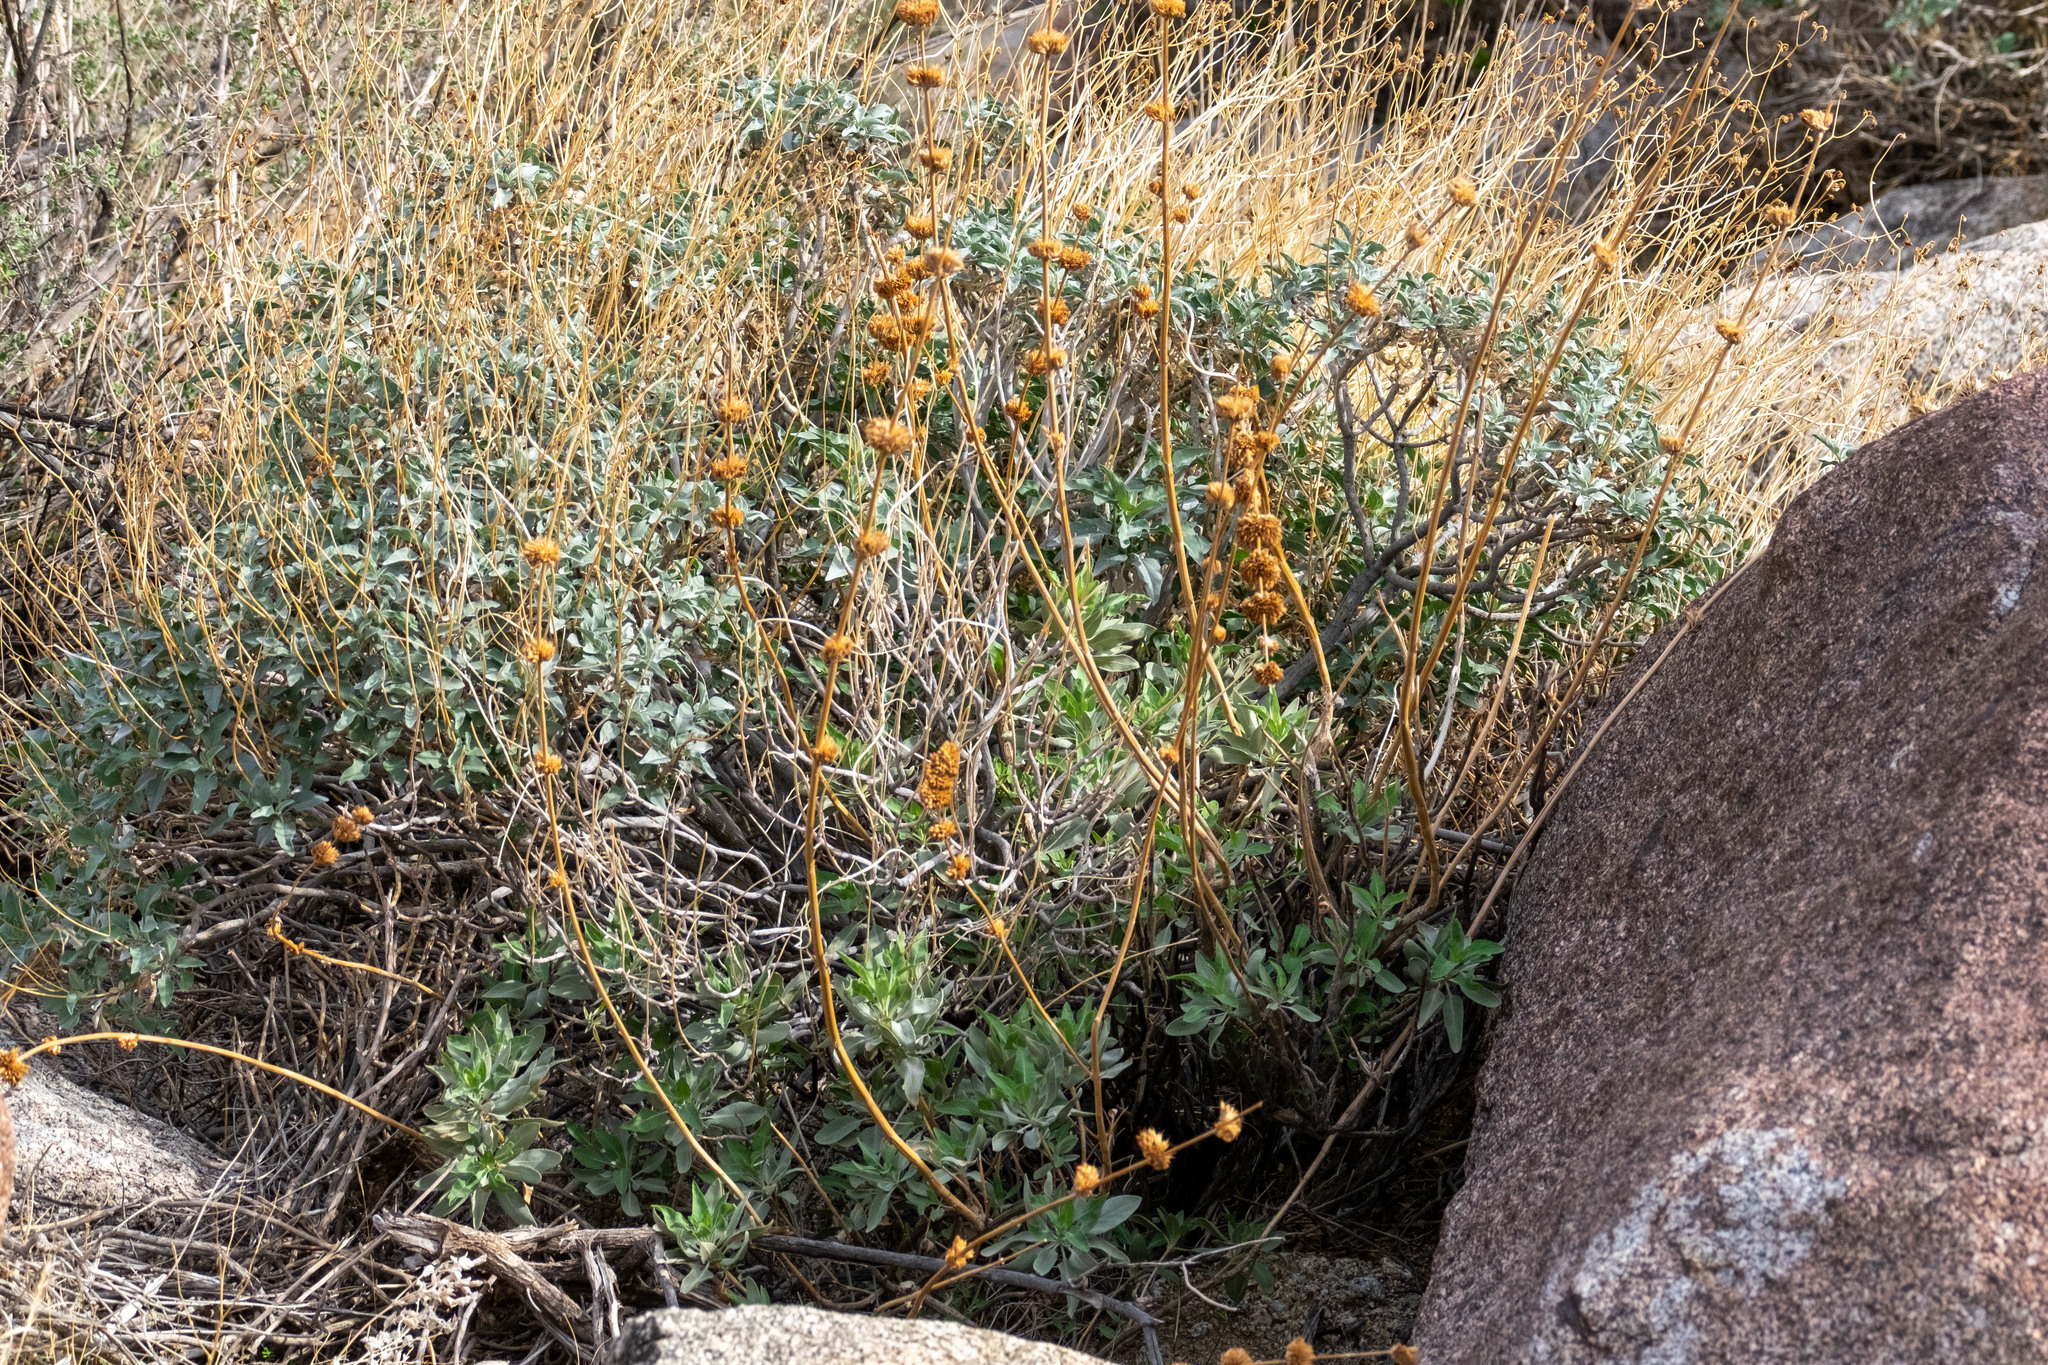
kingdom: Plantae
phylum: Tracheophyta
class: Magnoliopsida
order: Lamiales
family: Lamiaceae
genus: Salvia
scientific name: Salvia vaseyi
